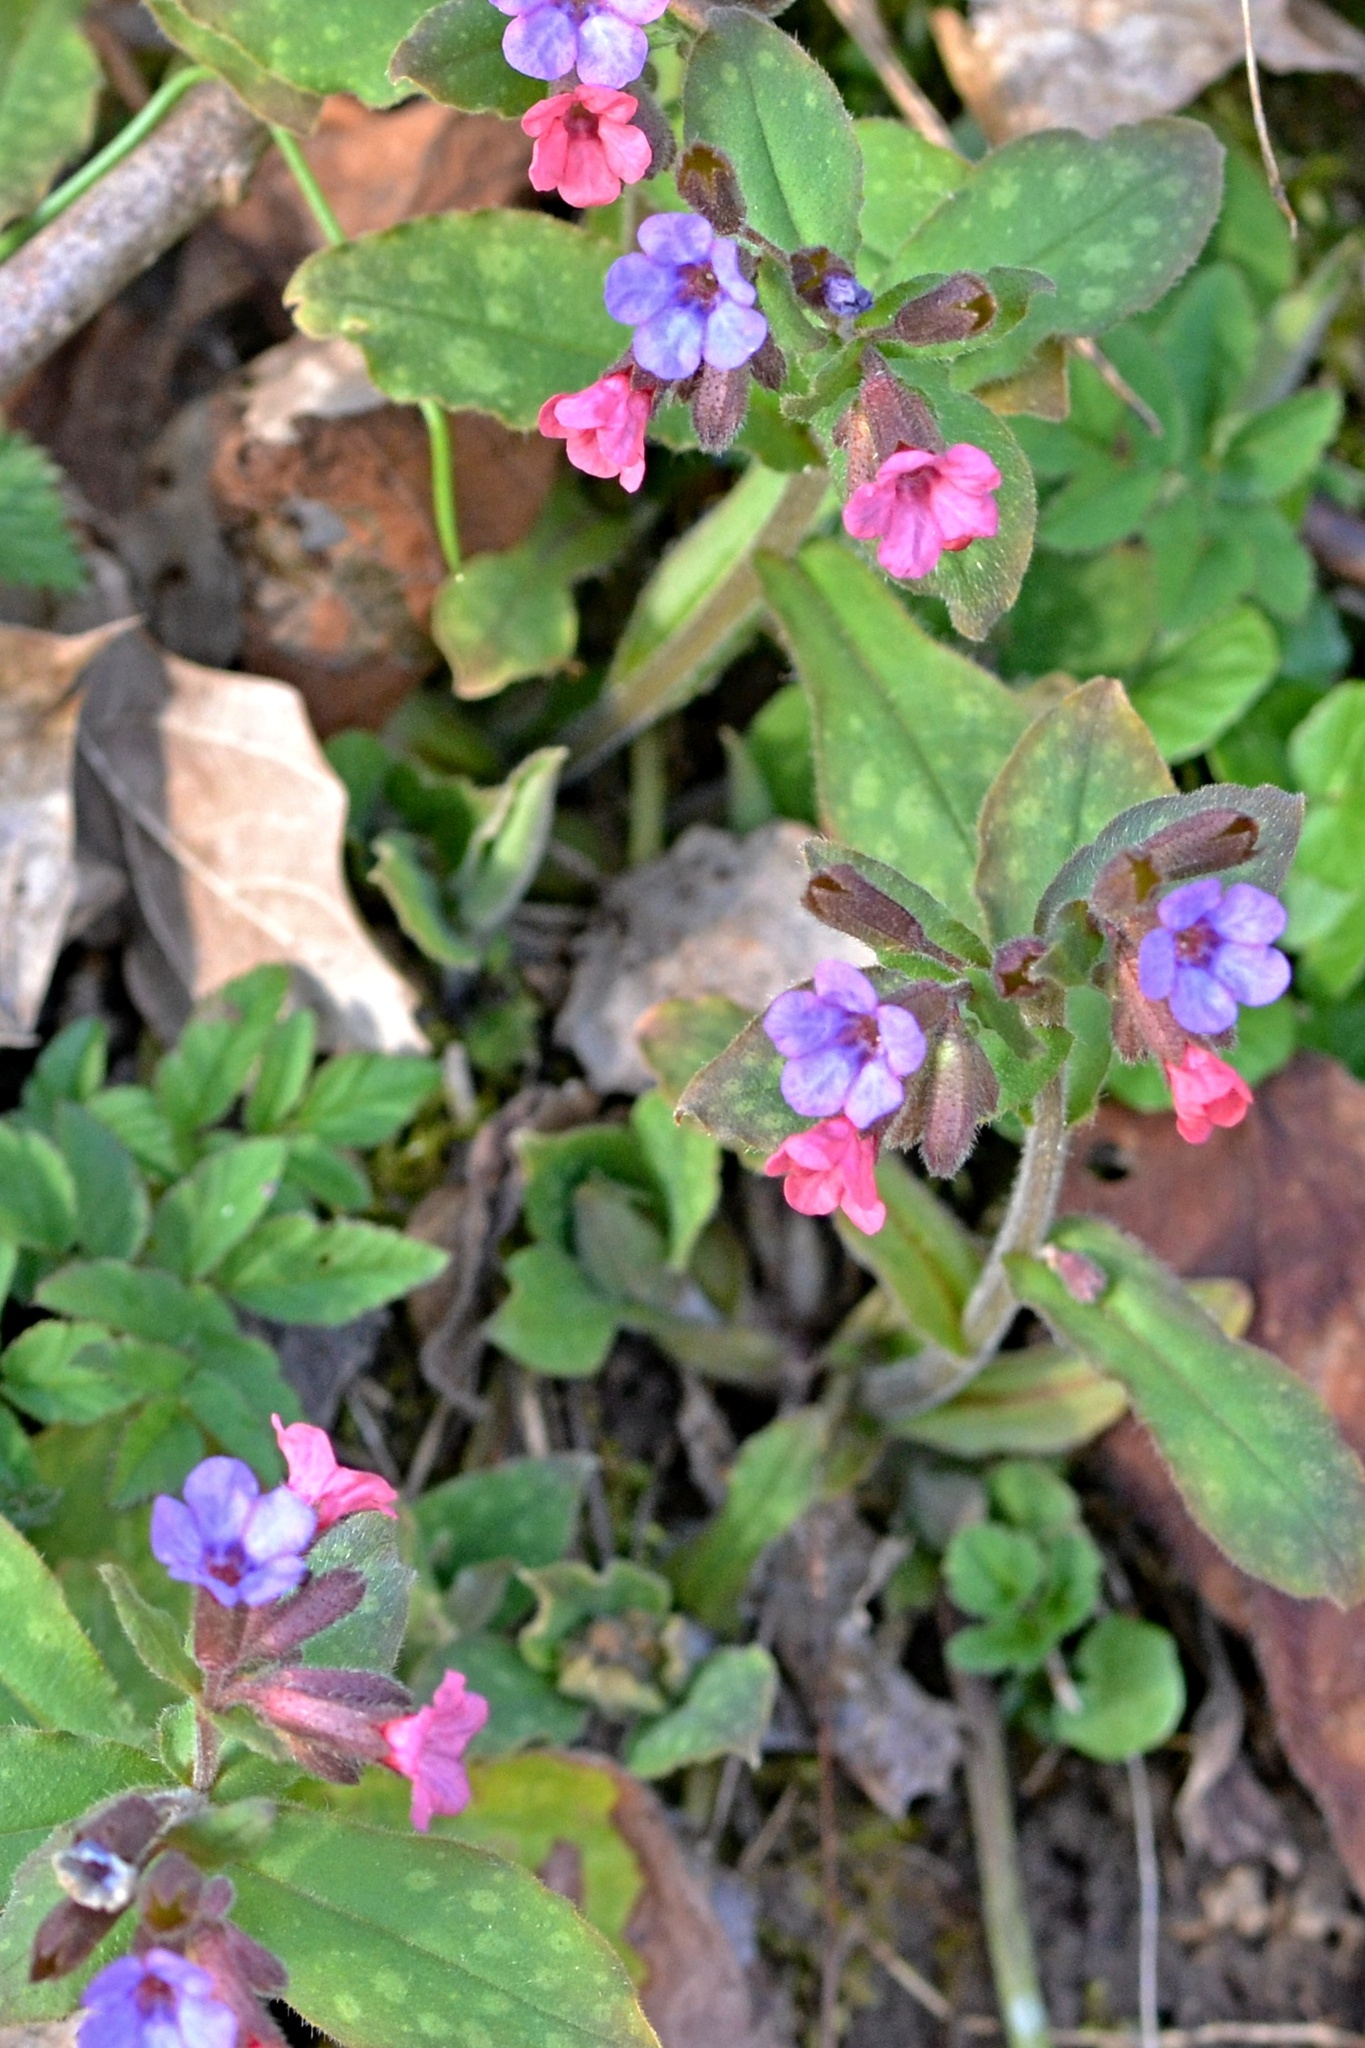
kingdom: Plantae
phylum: Tracheophyta
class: Magnoliopsida
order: Boraginales
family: Boraginaceae
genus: Pulmonaria
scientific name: Pulmonaria officinalis
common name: Lungwort
